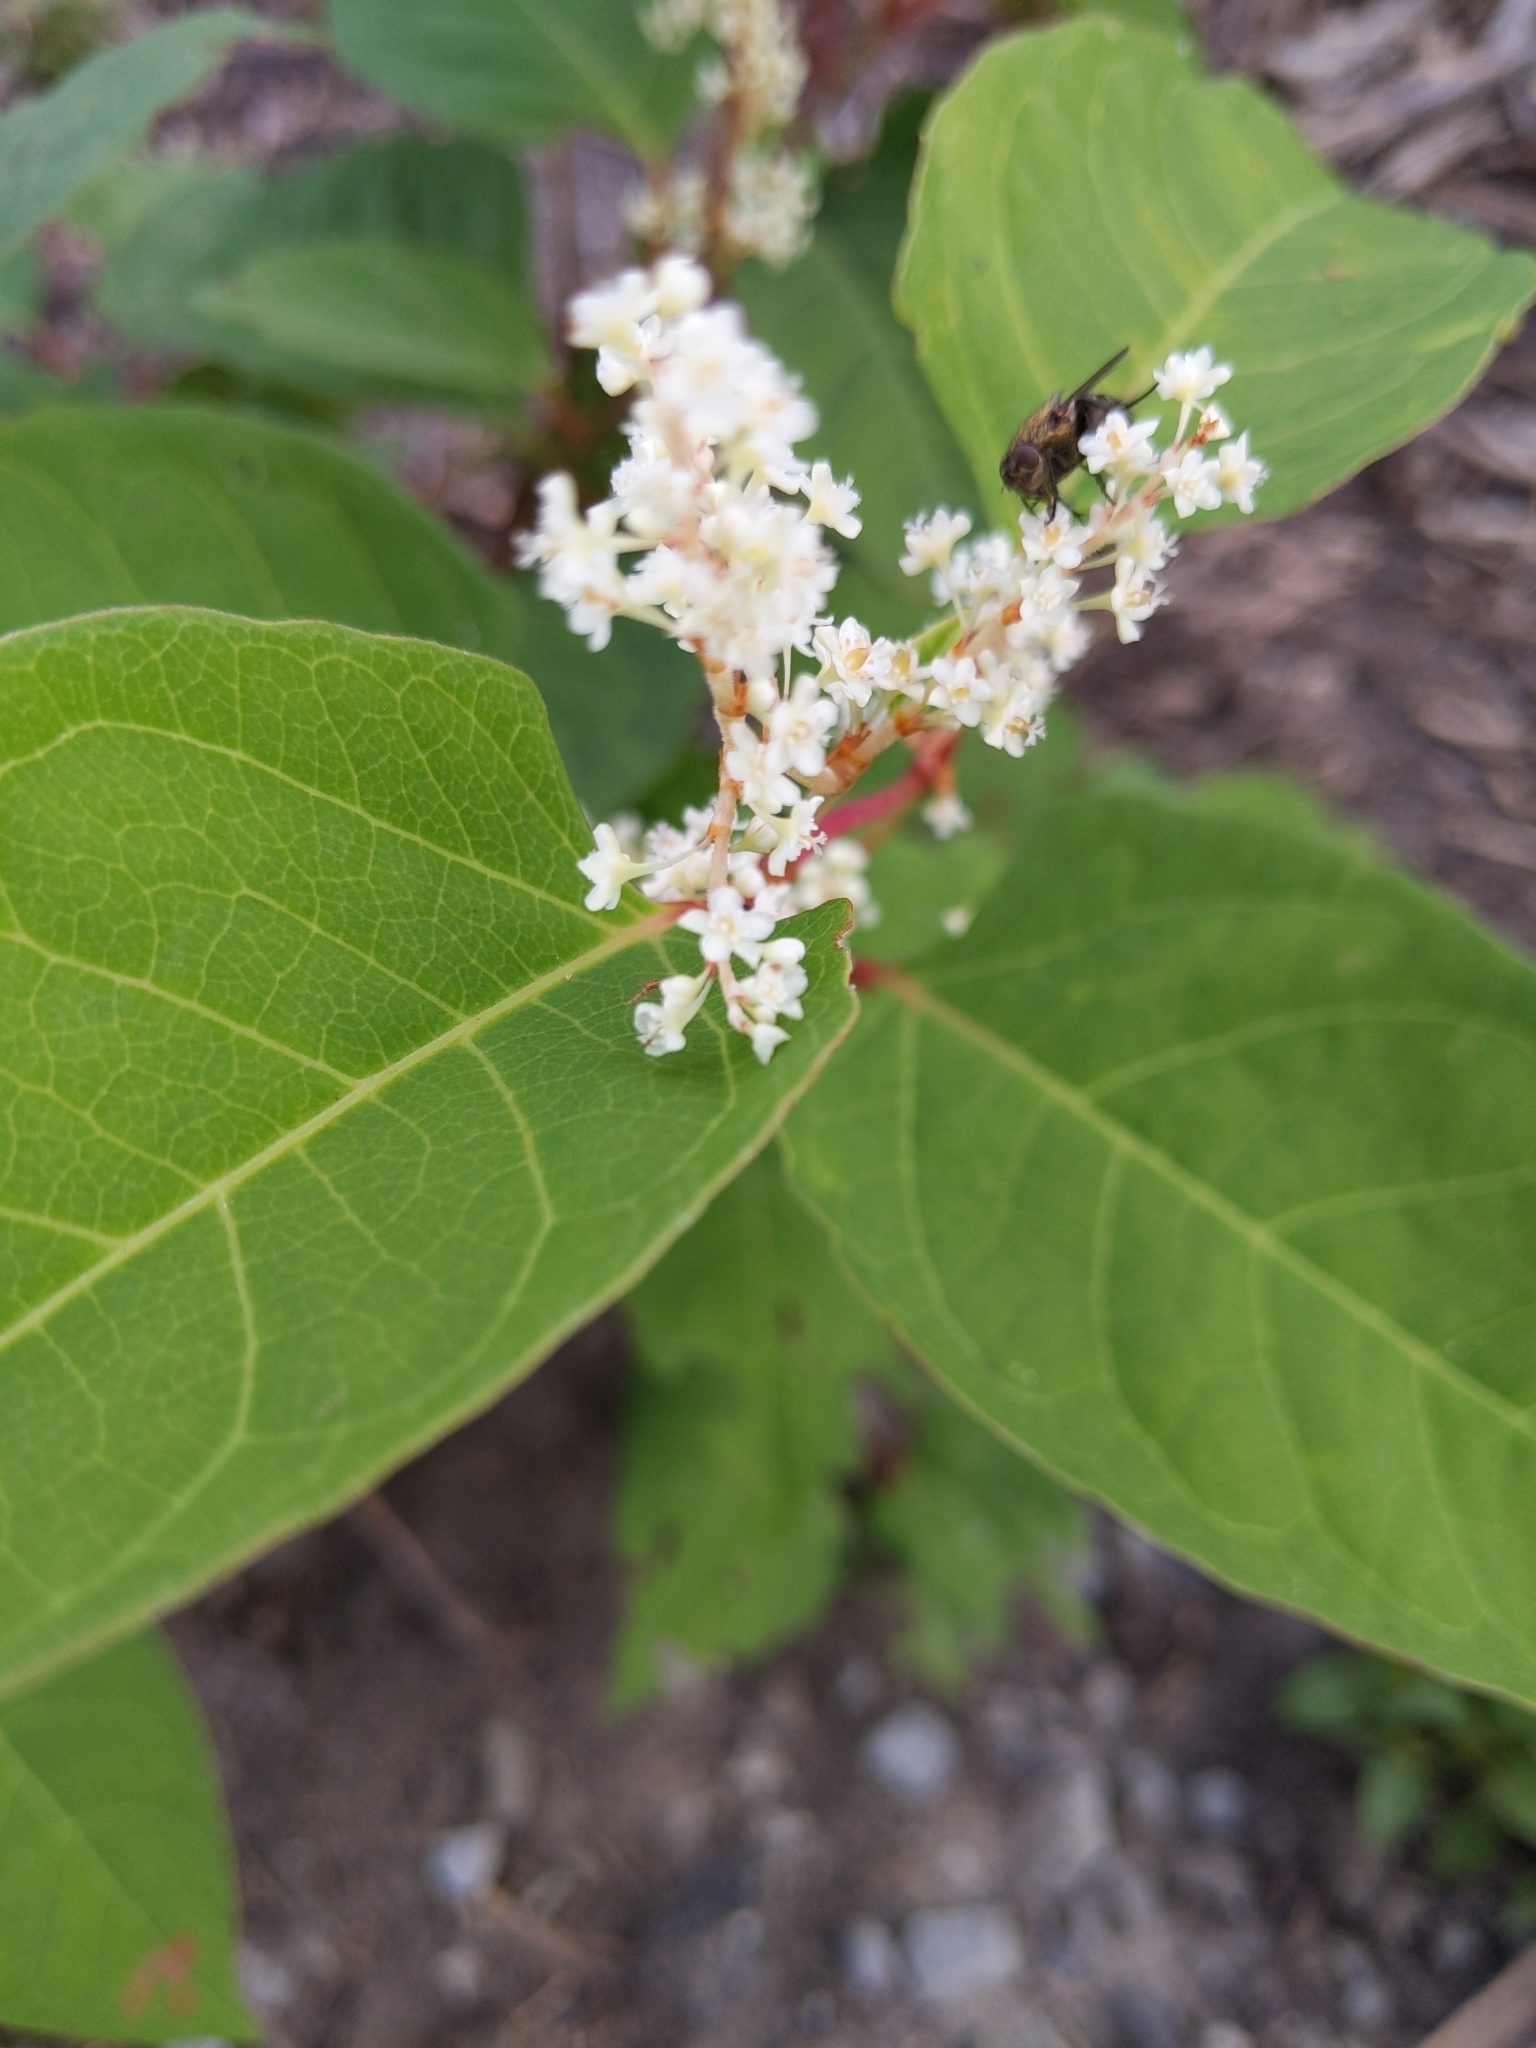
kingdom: Plantae
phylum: Tracheophyta
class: Magnoliopsida
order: Caryophyllales
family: Polygonaceae
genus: Reynoutria
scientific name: Reynoutria japonica
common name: Japanese knotweed
